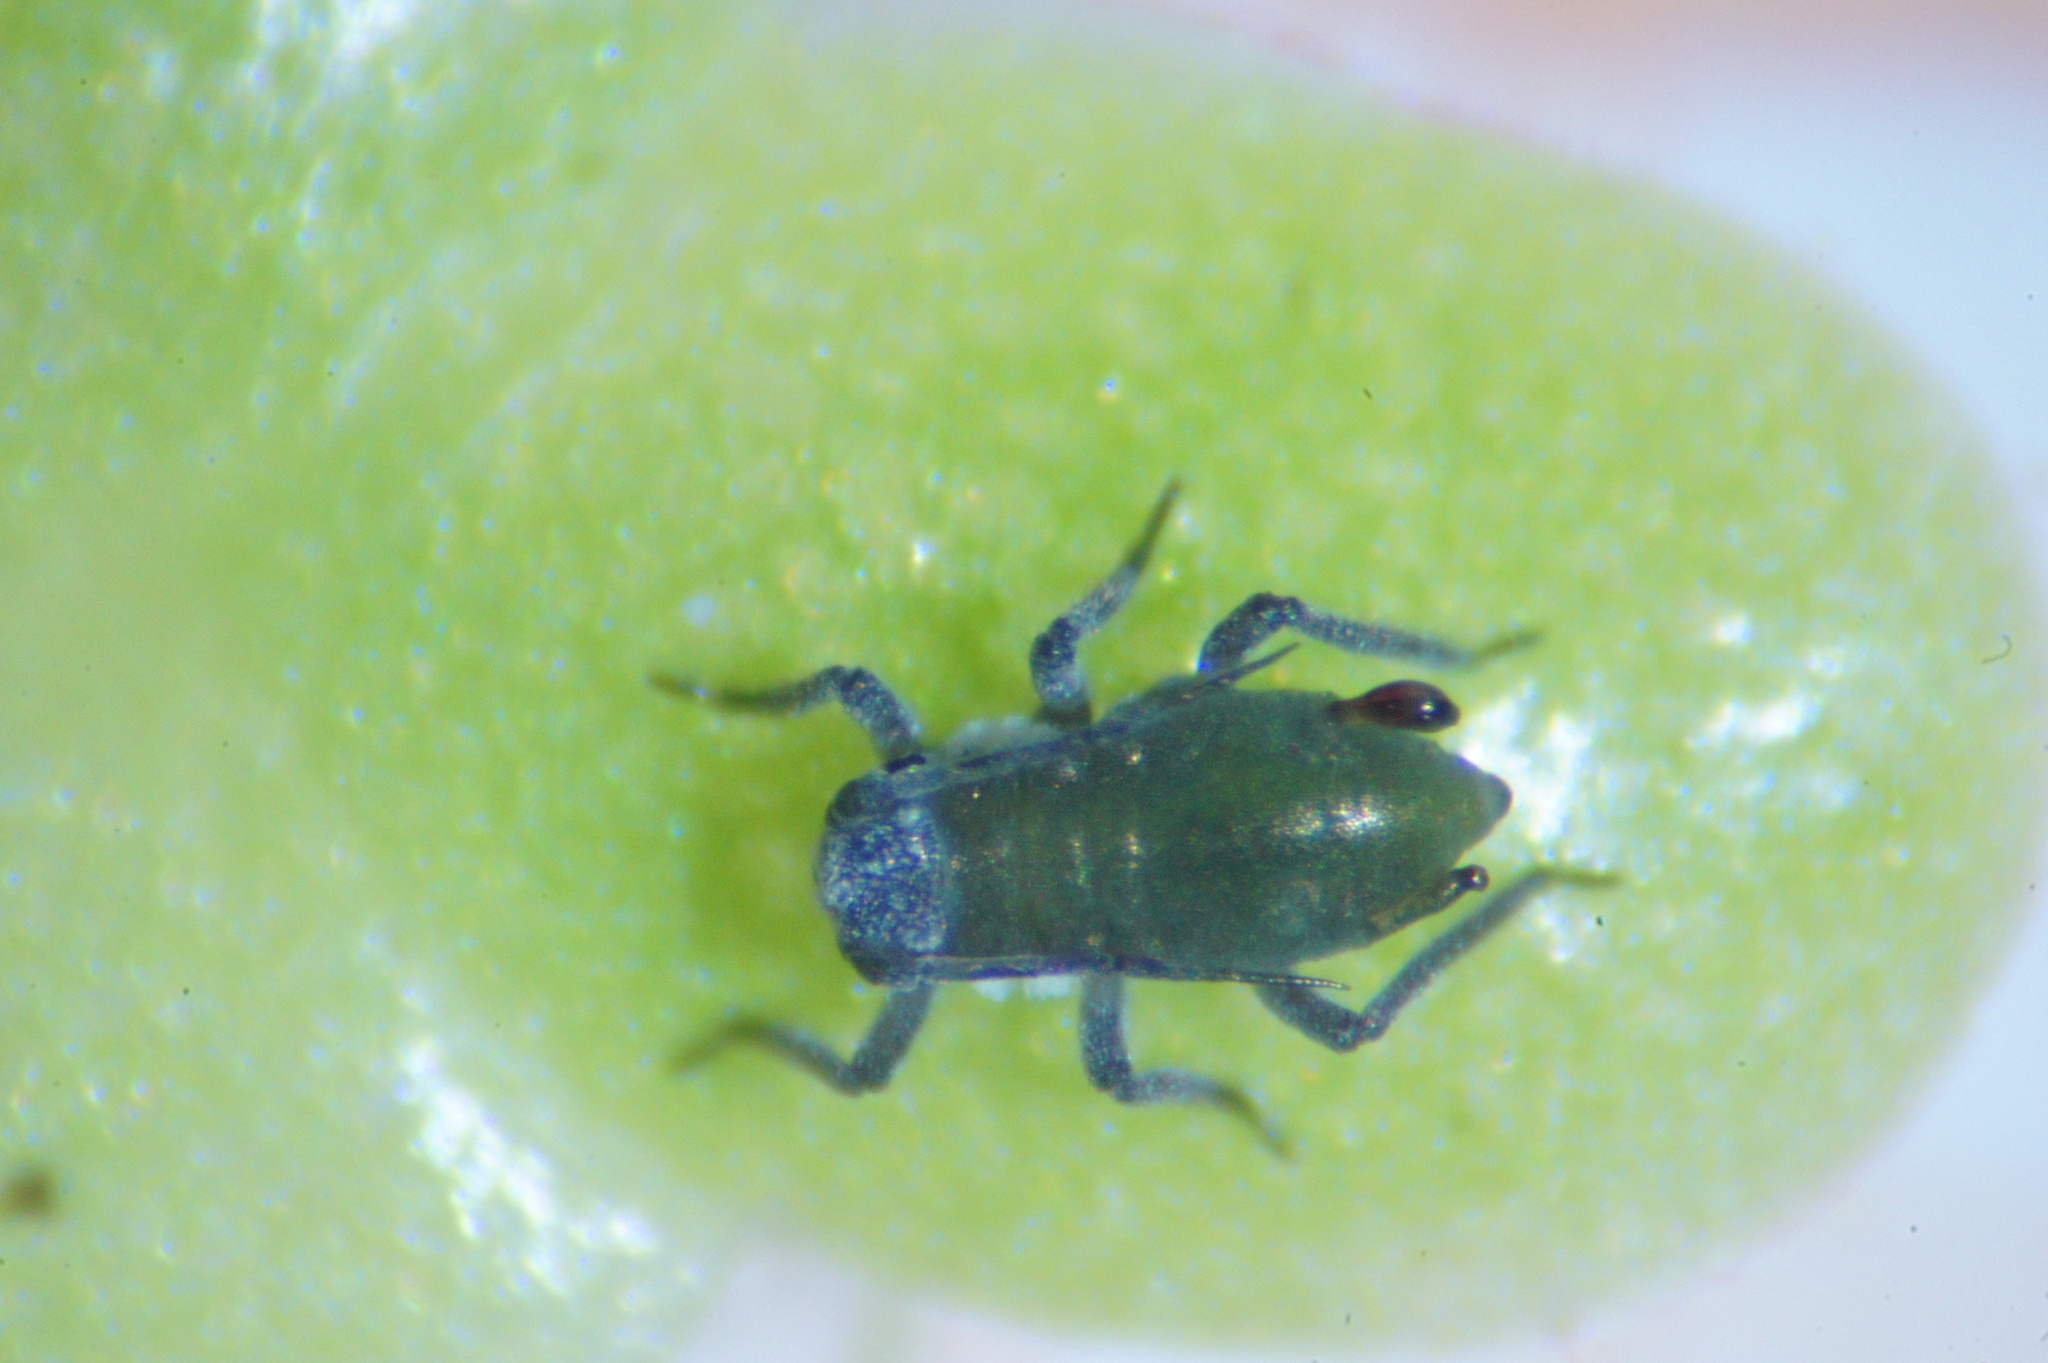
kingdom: Animalia
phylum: Arthropoda
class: Insecta
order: Hemiptera
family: Aphididae
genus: Rhopalosiphum
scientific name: Rhopalosiphum nymphaeae
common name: Water lily aphid
